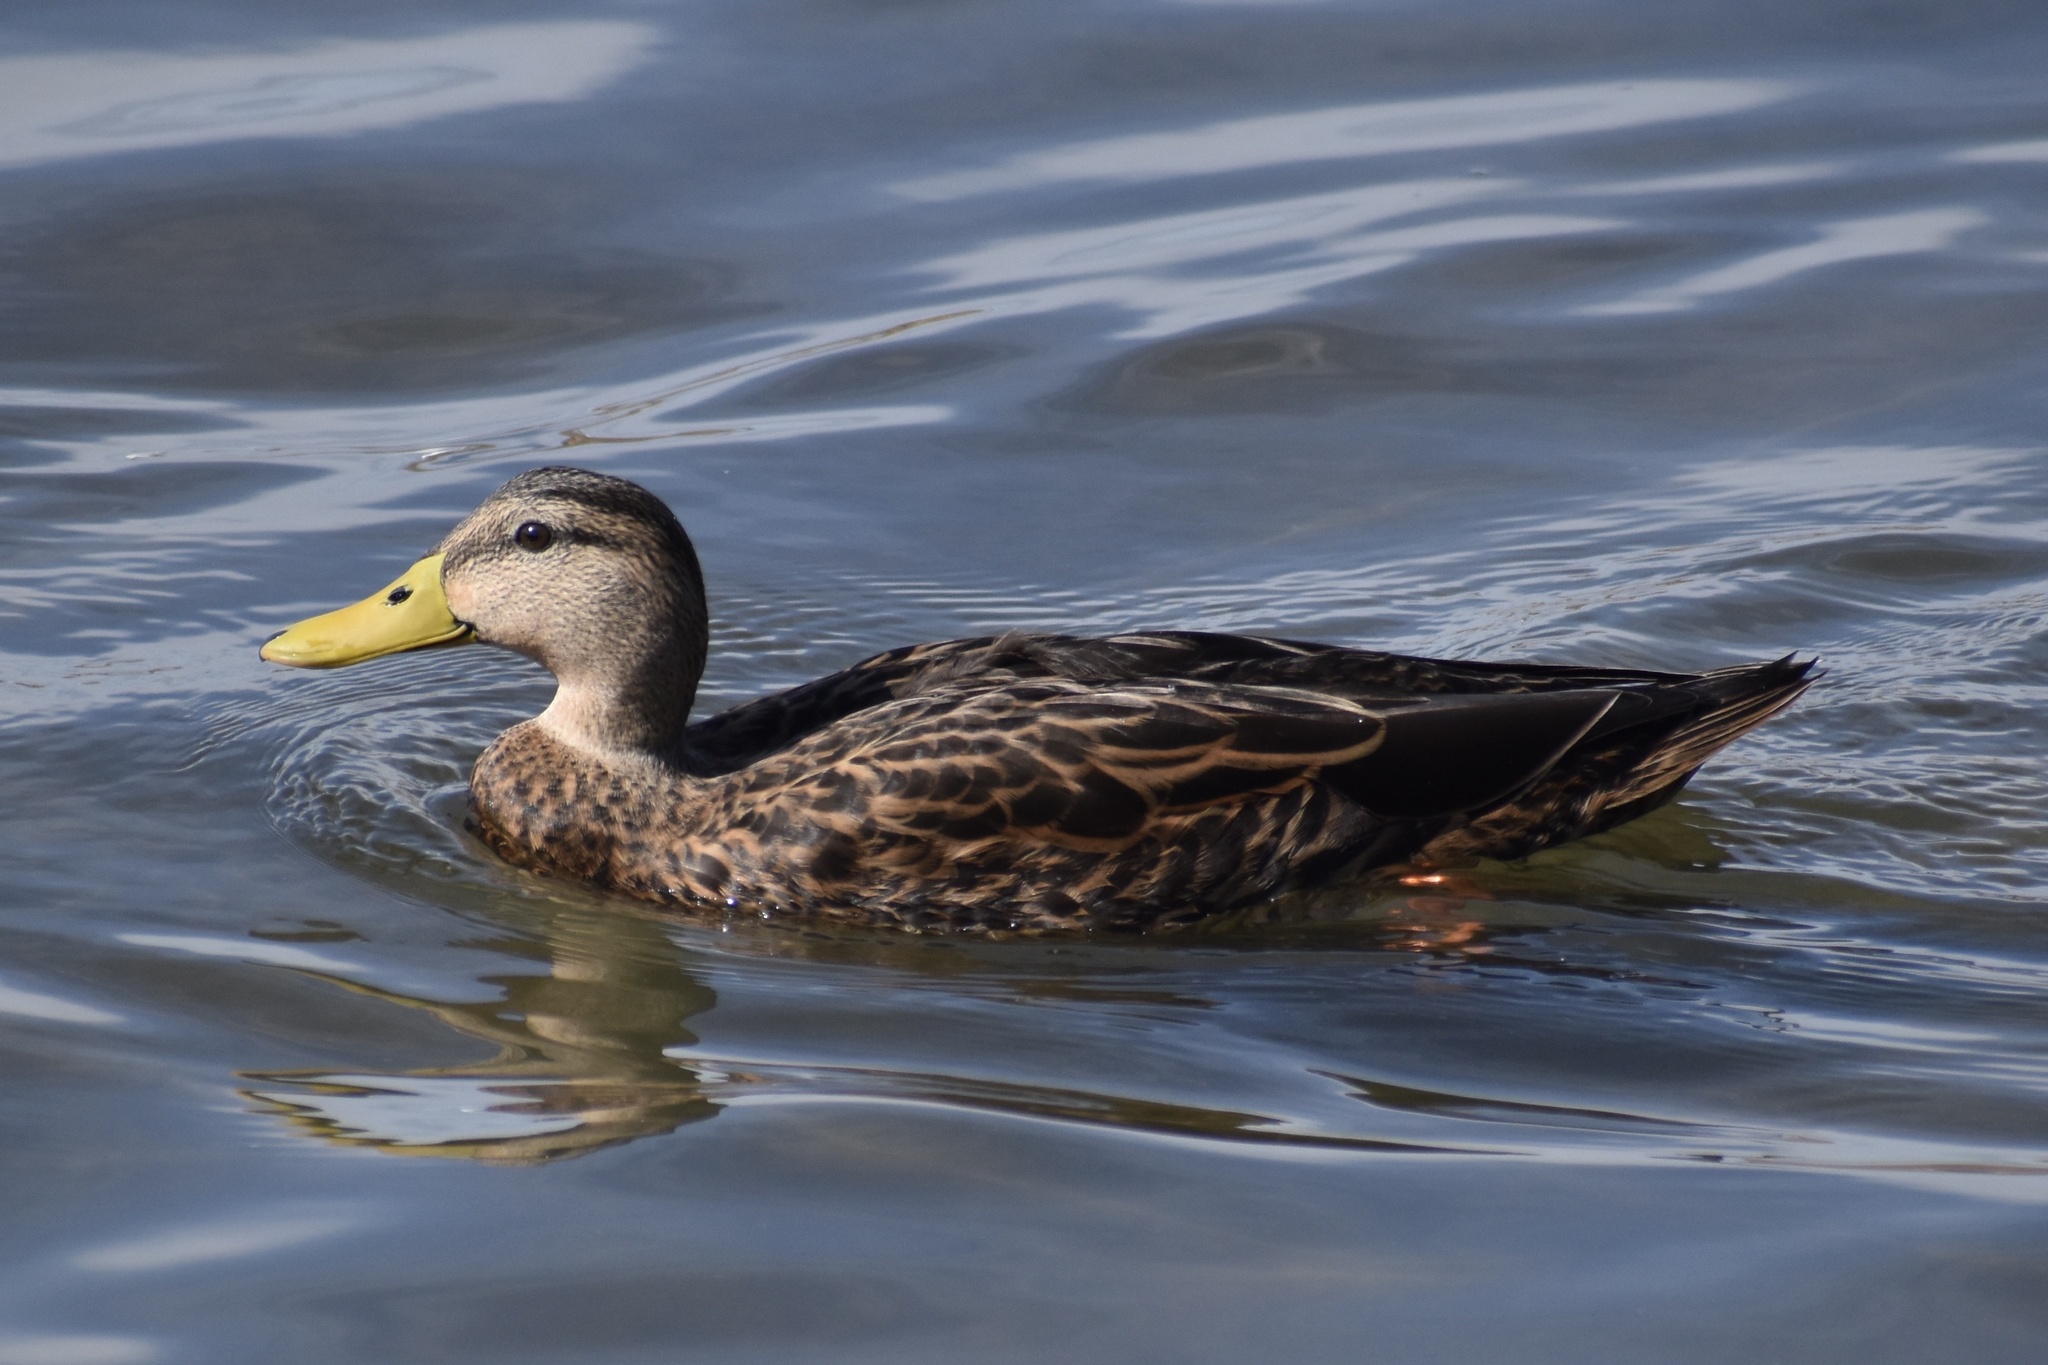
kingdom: Animalia
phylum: Chordata
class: Aves
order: Anseriformes
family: Anatidae
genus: Anas
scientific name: Anas fulvigula
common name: Mottled duck
